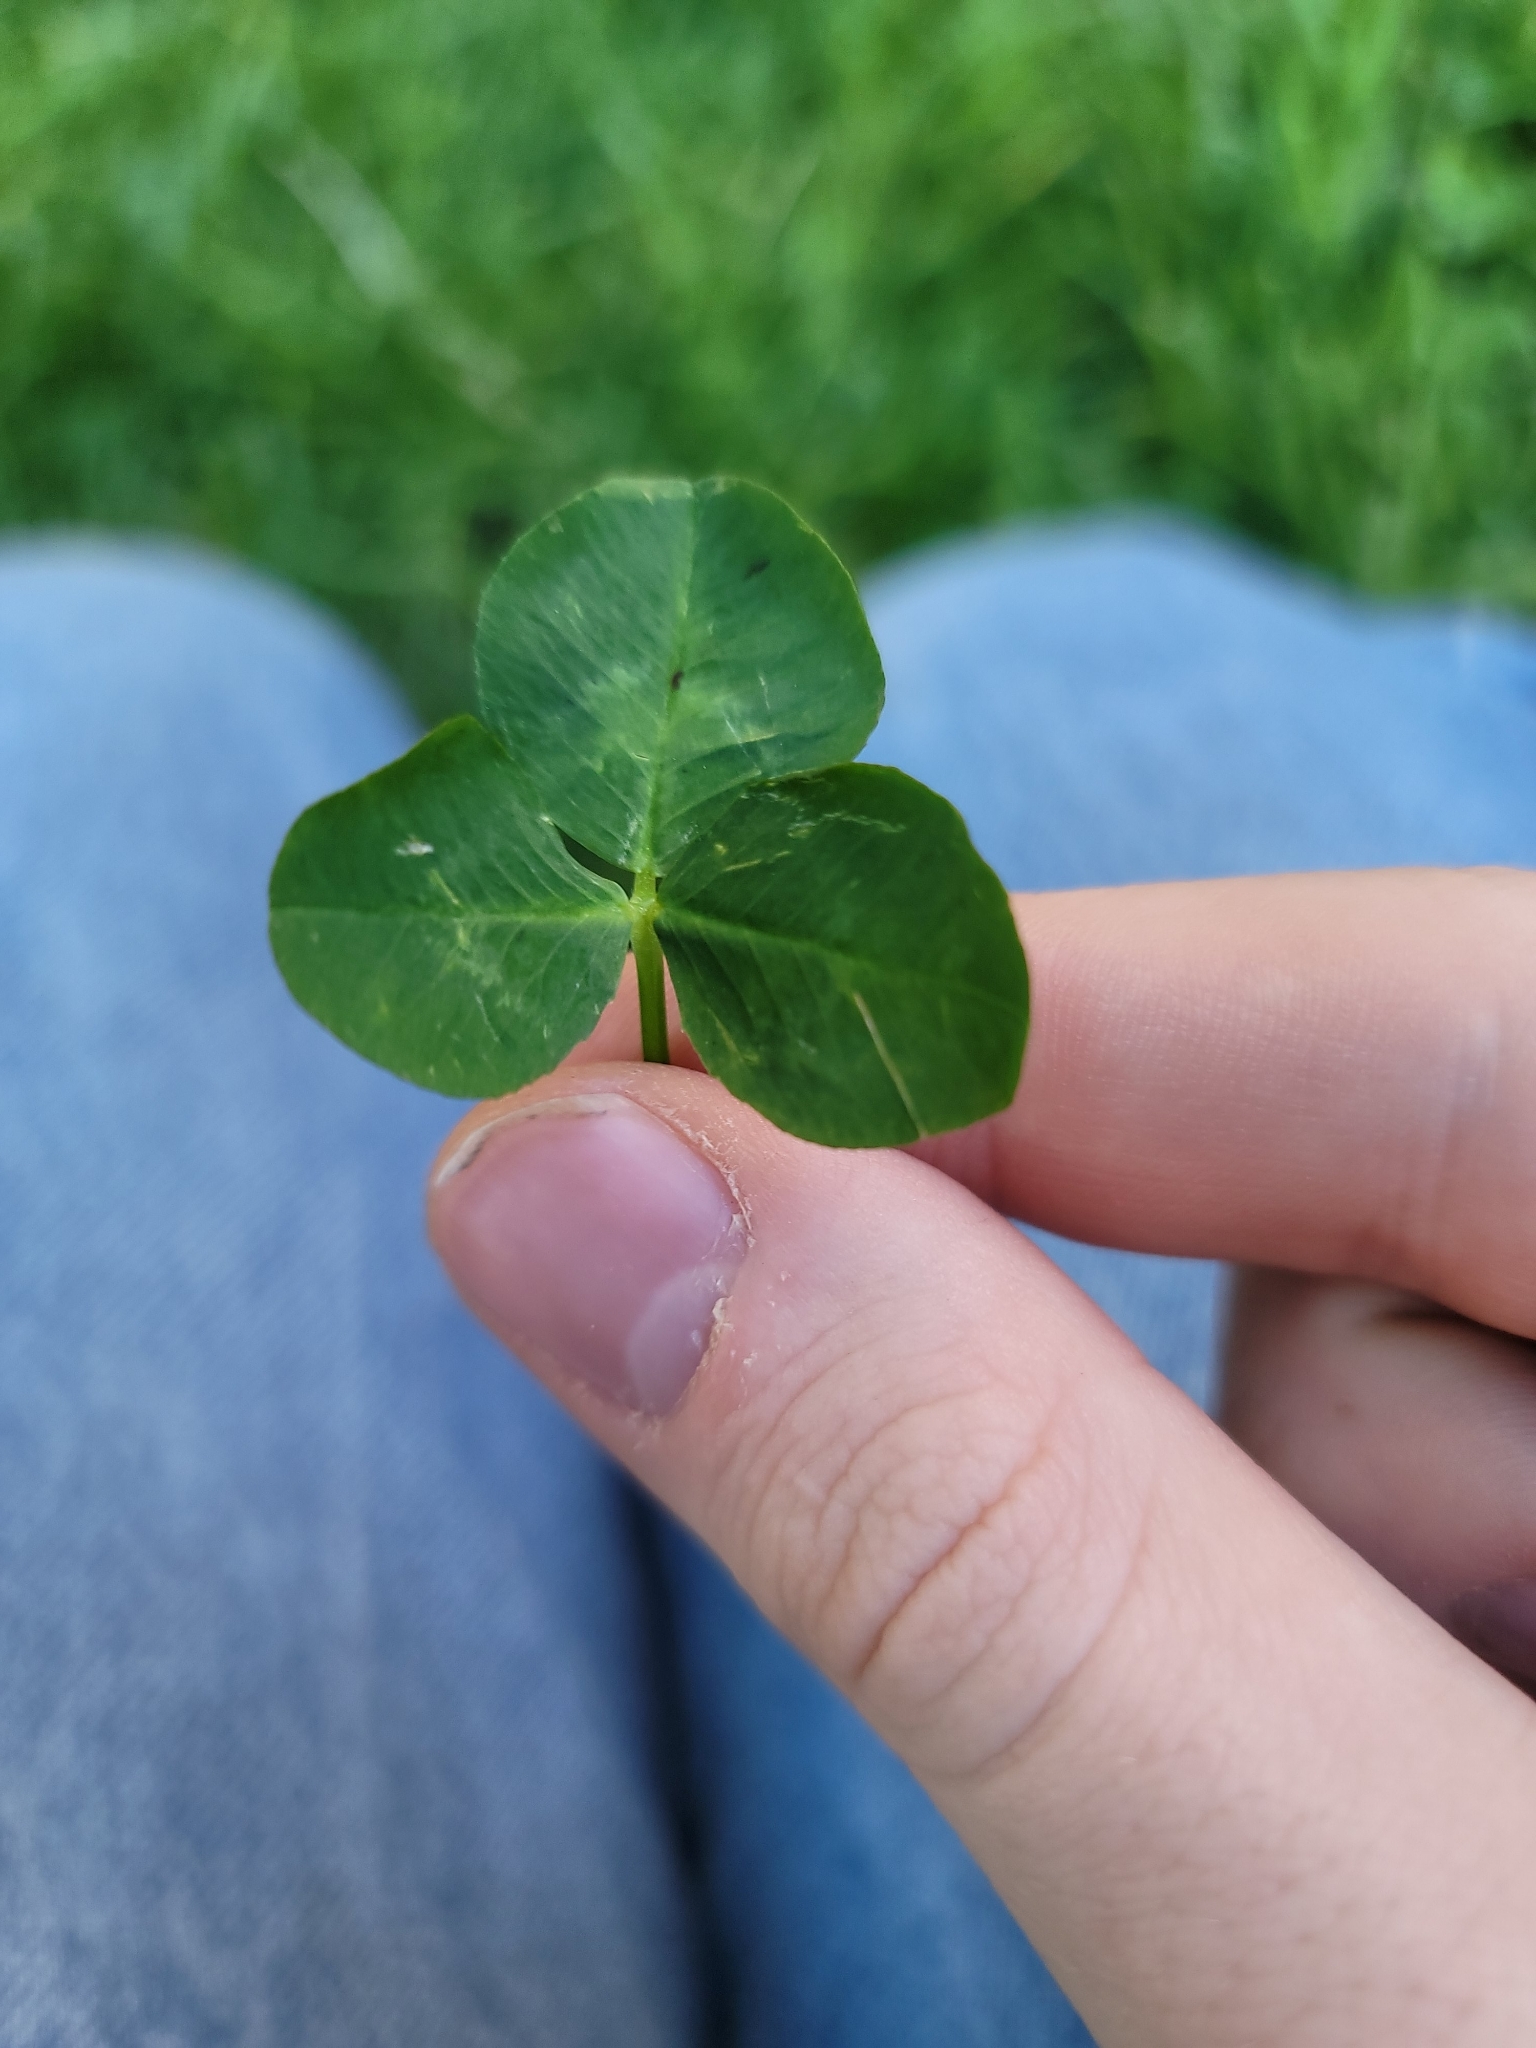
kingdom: Plantae
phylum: Tracheophyta
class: Magnoliopsida
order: Fabales
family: Fabaceae
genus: Trifolium
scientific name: Trifolium repens
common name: White clover
